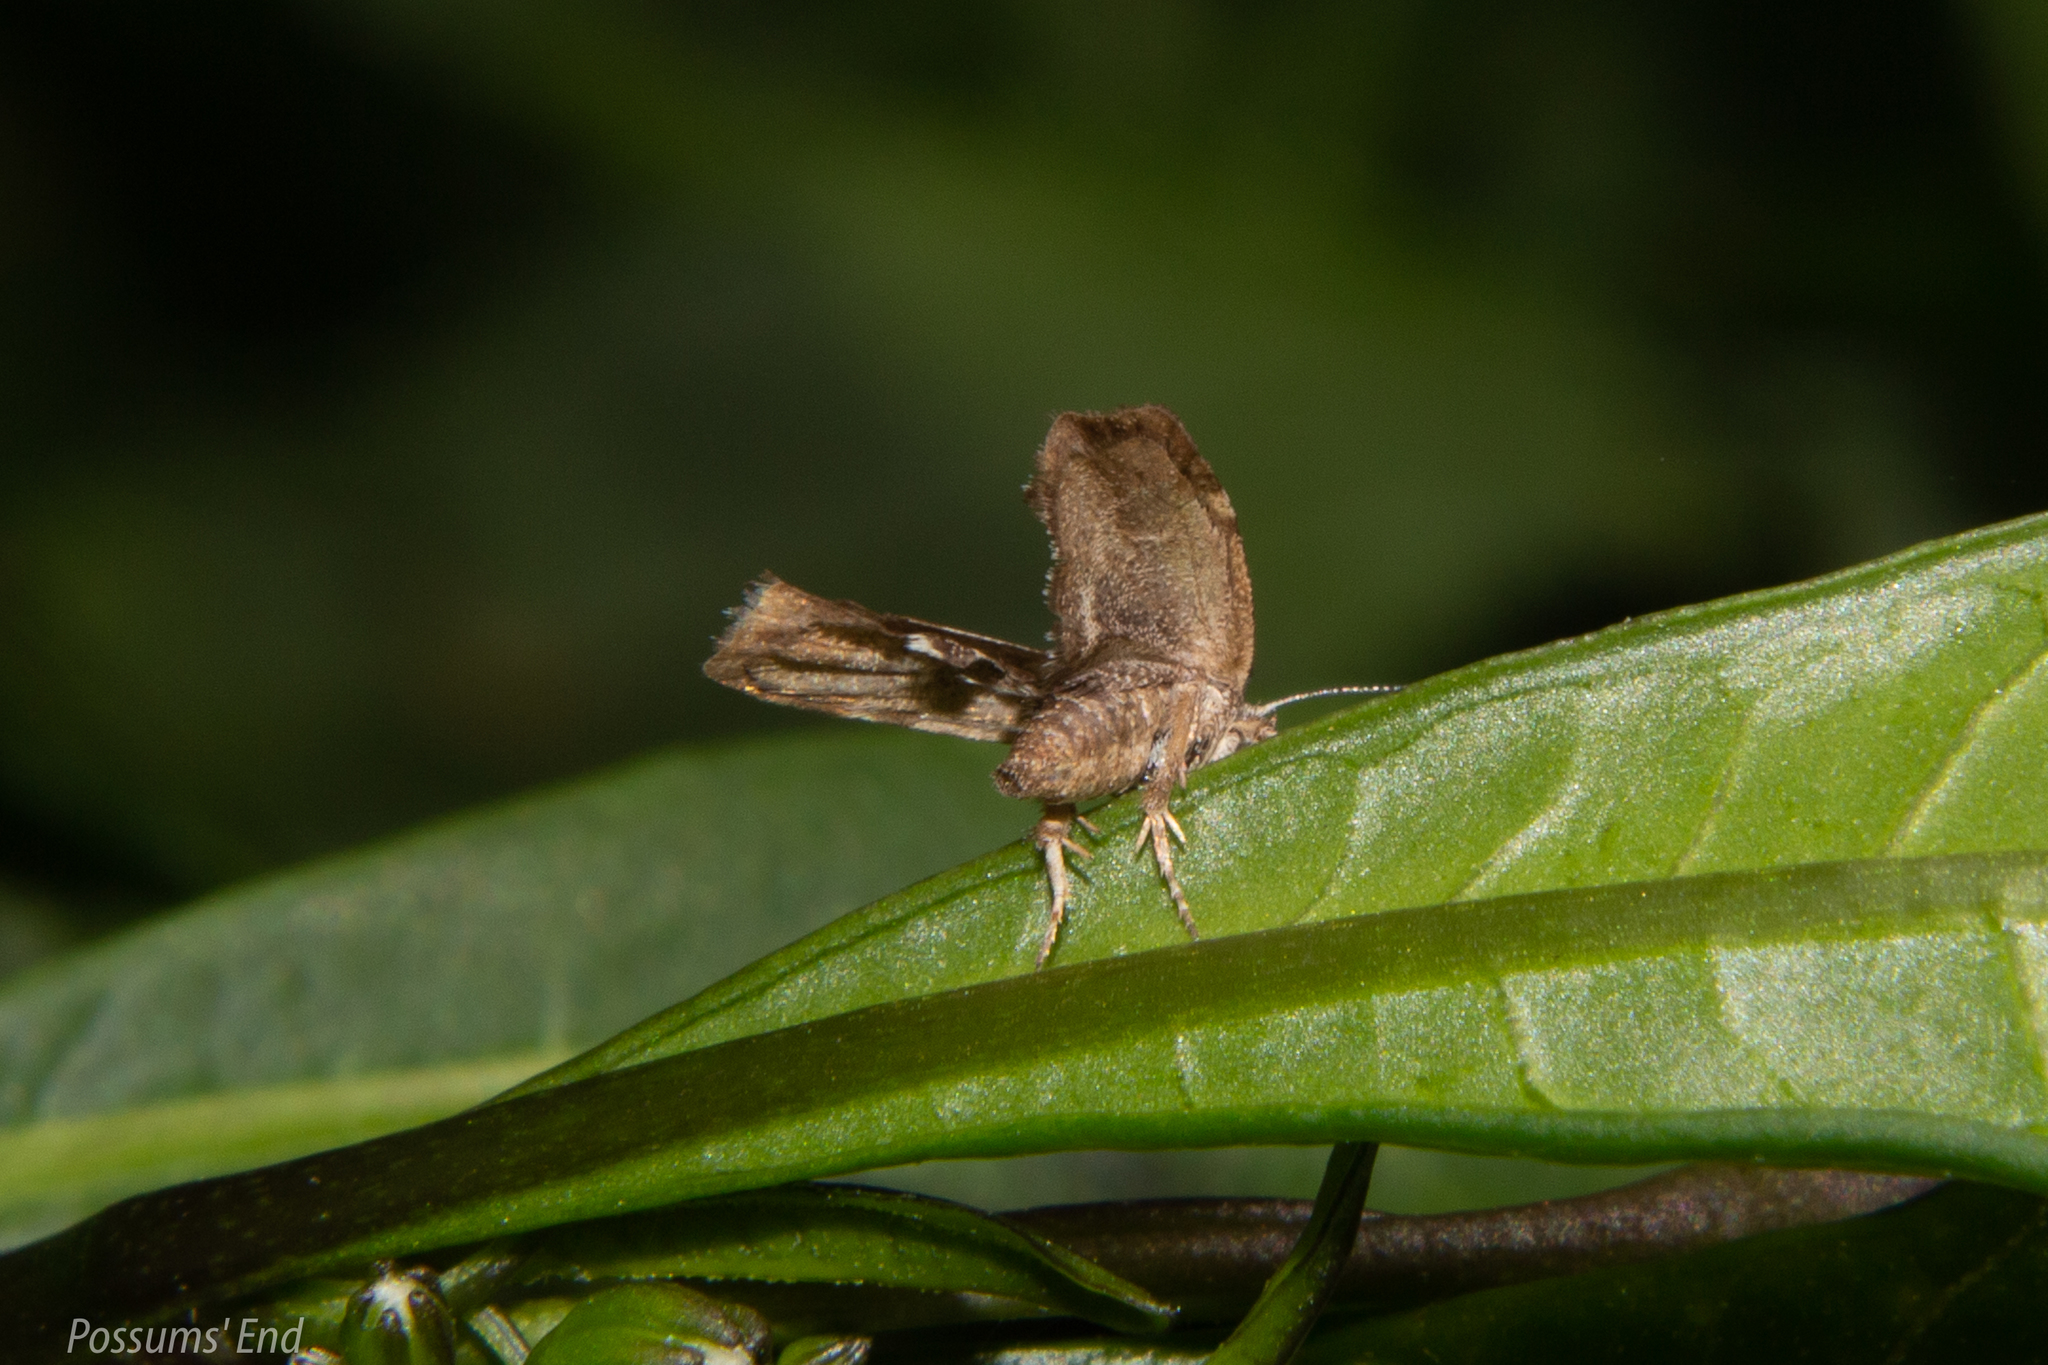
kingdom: Animalia
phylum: Arthropoda
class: Insecta
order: Lepidoptera
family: Choreutidae
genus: Asterivora
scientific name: Asterivora combinatana
